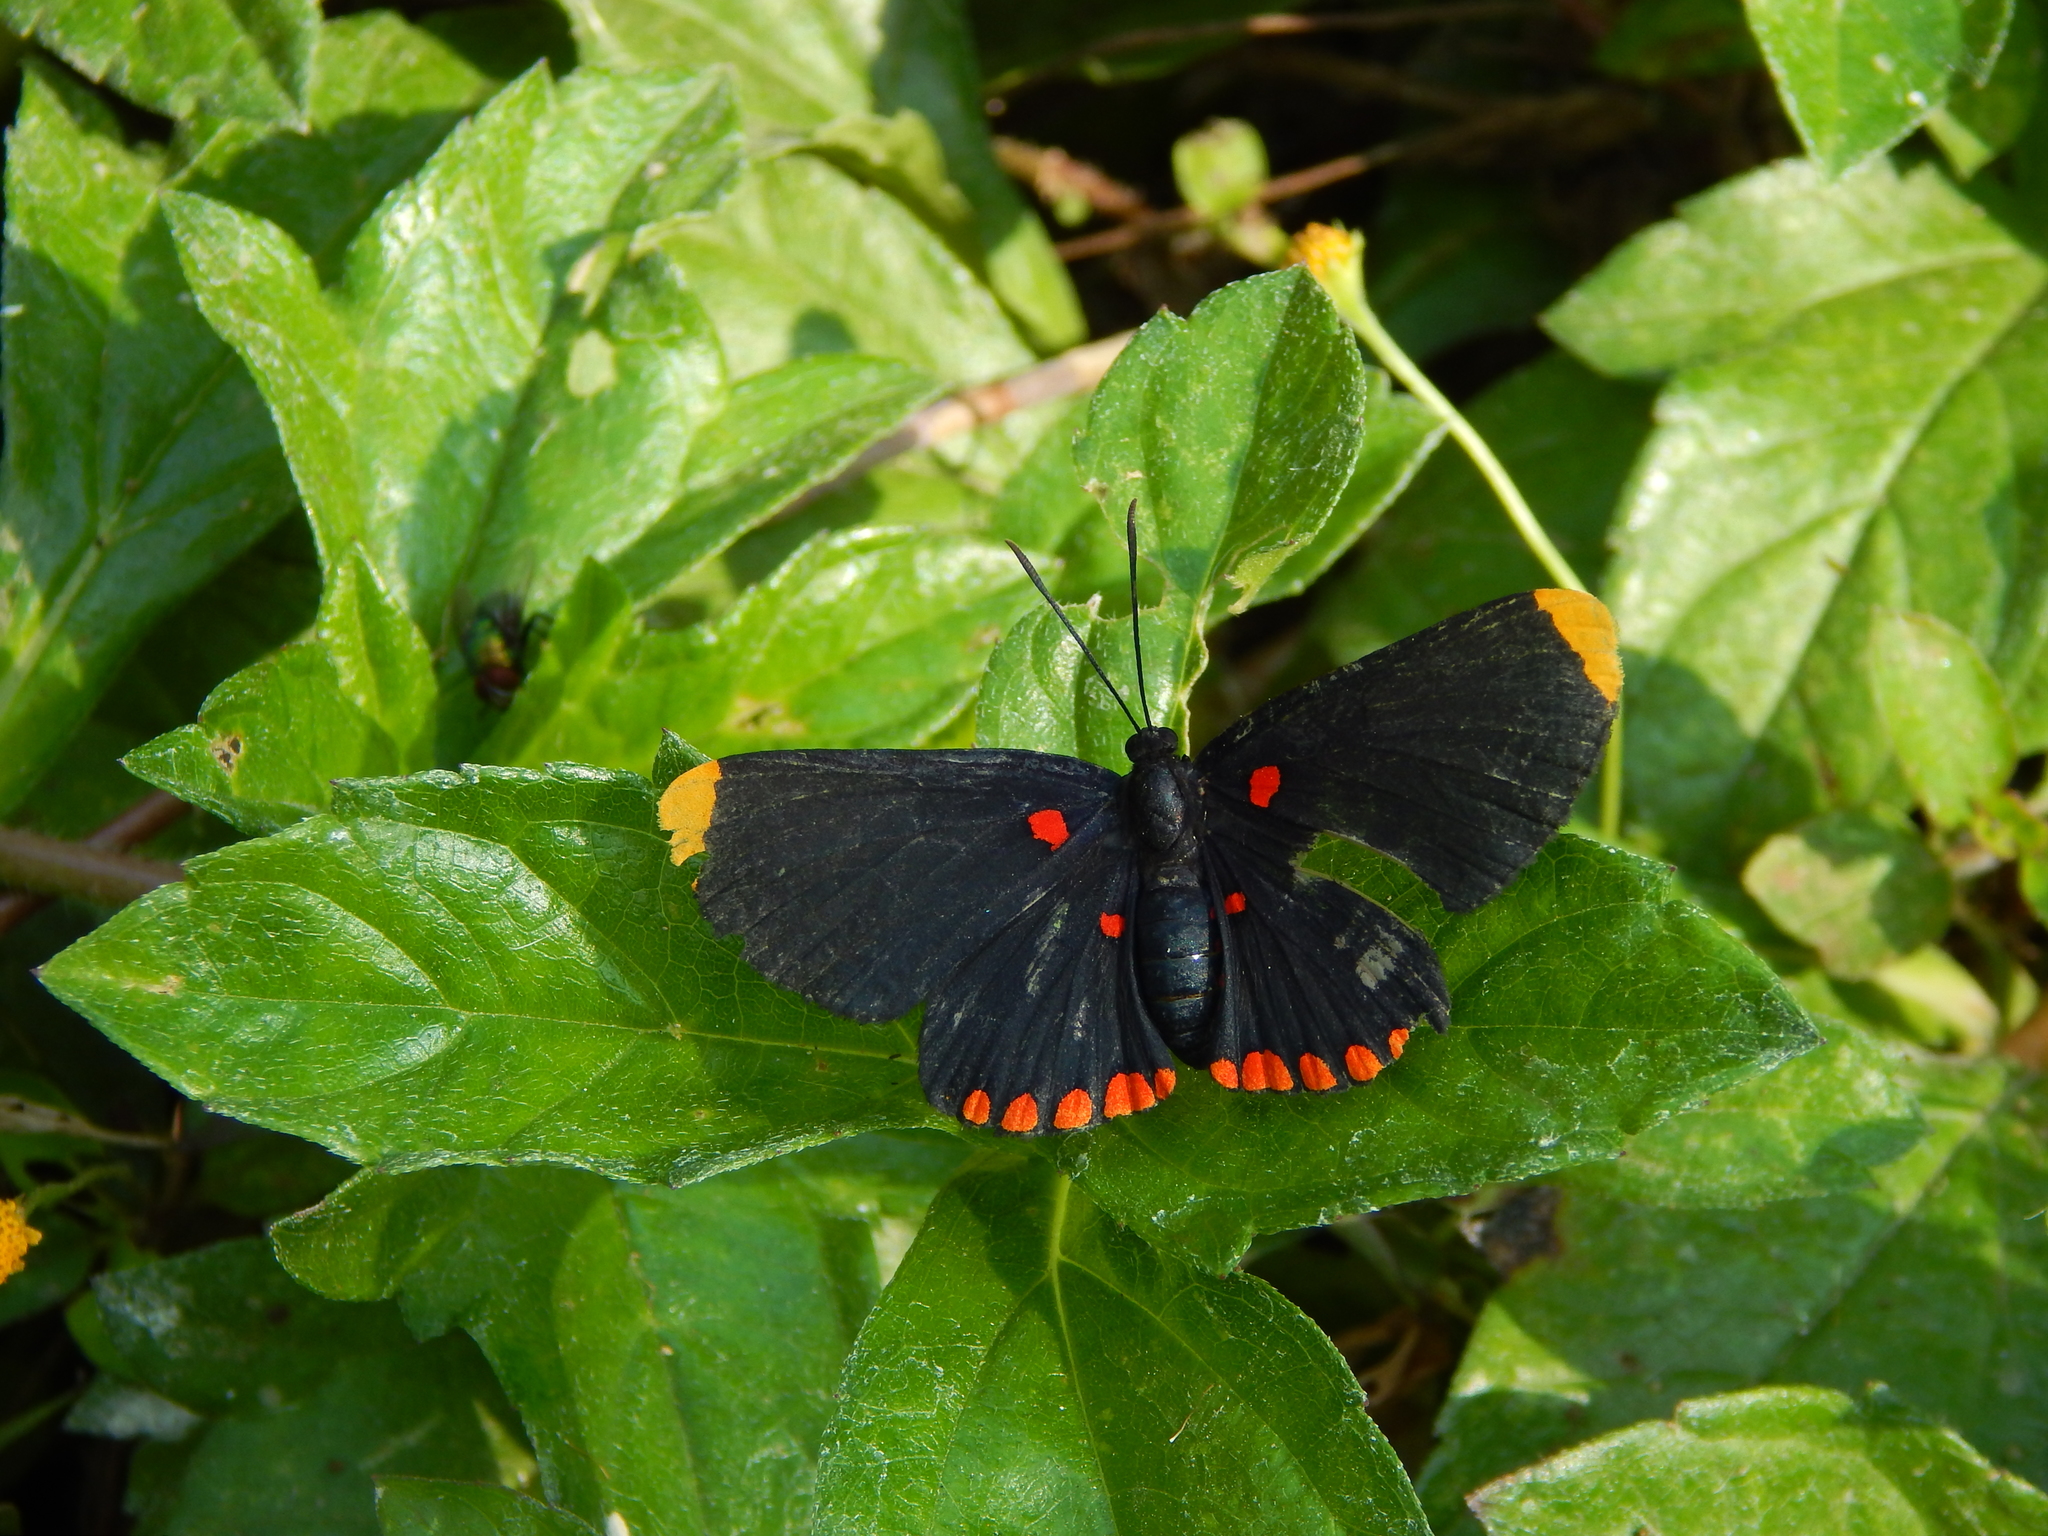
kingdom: Animalia
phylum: Arthropoda
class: Insecta
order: Lepidoptera
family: Lycaenidae
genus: Melanis
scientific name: Melanis pixe
